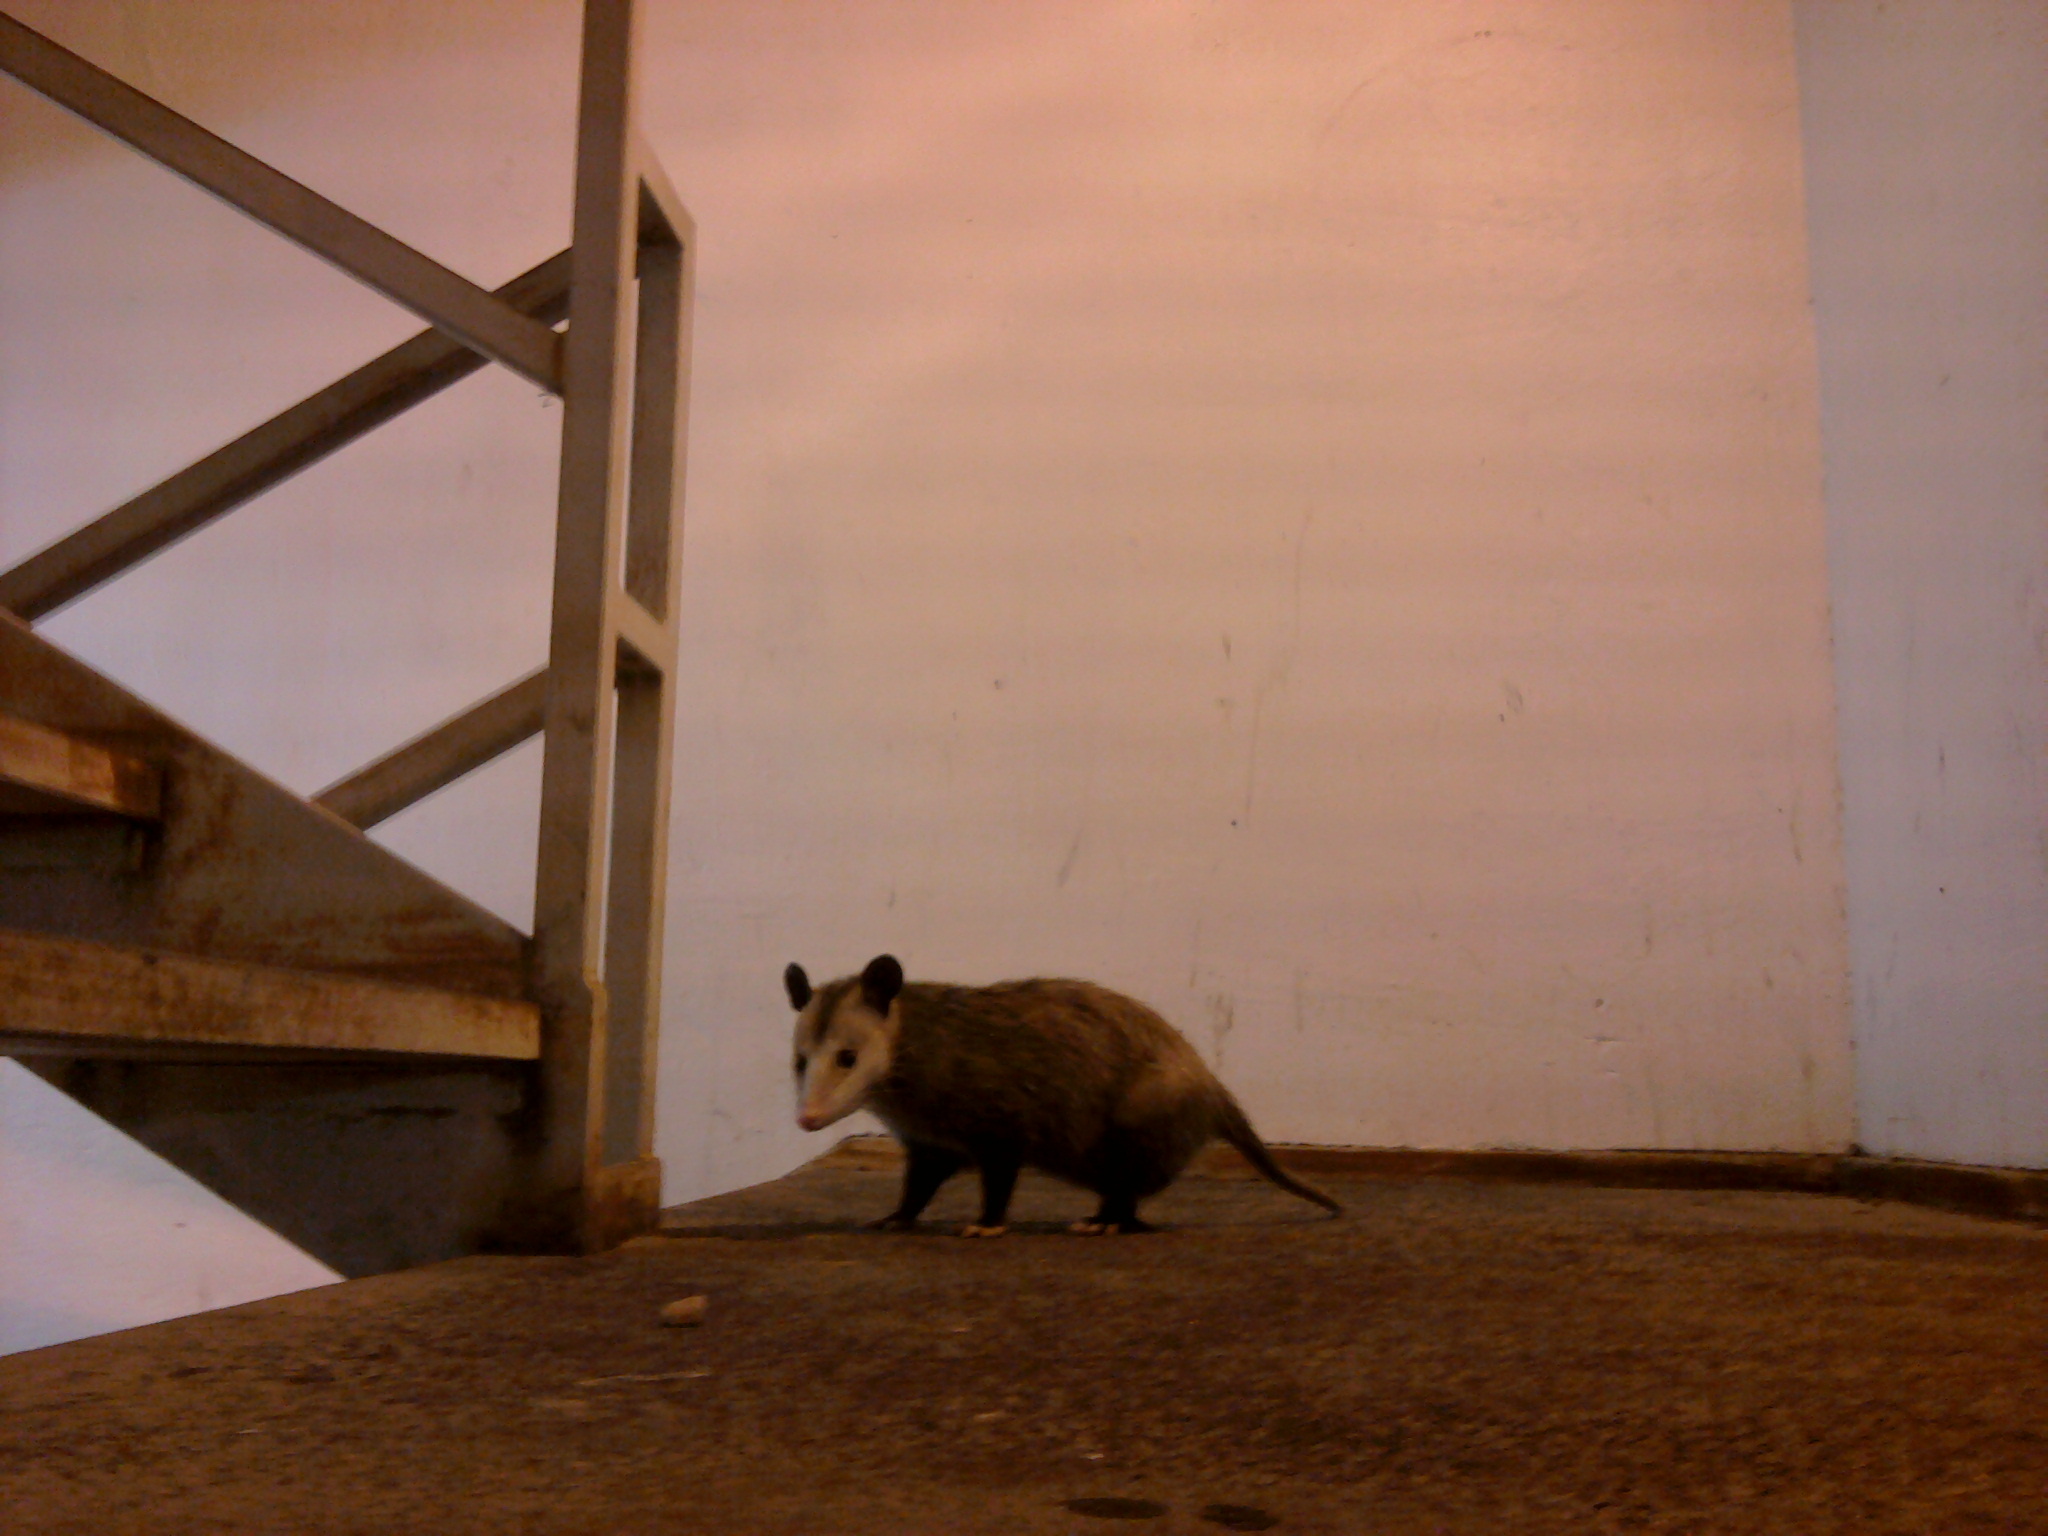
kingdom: Animalia
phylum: Chordata
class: Mammalia
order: Didelphimorphia
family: Didelphidae
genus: Didelphis
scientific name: Didelphis virginiana
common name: Virginia opossum
